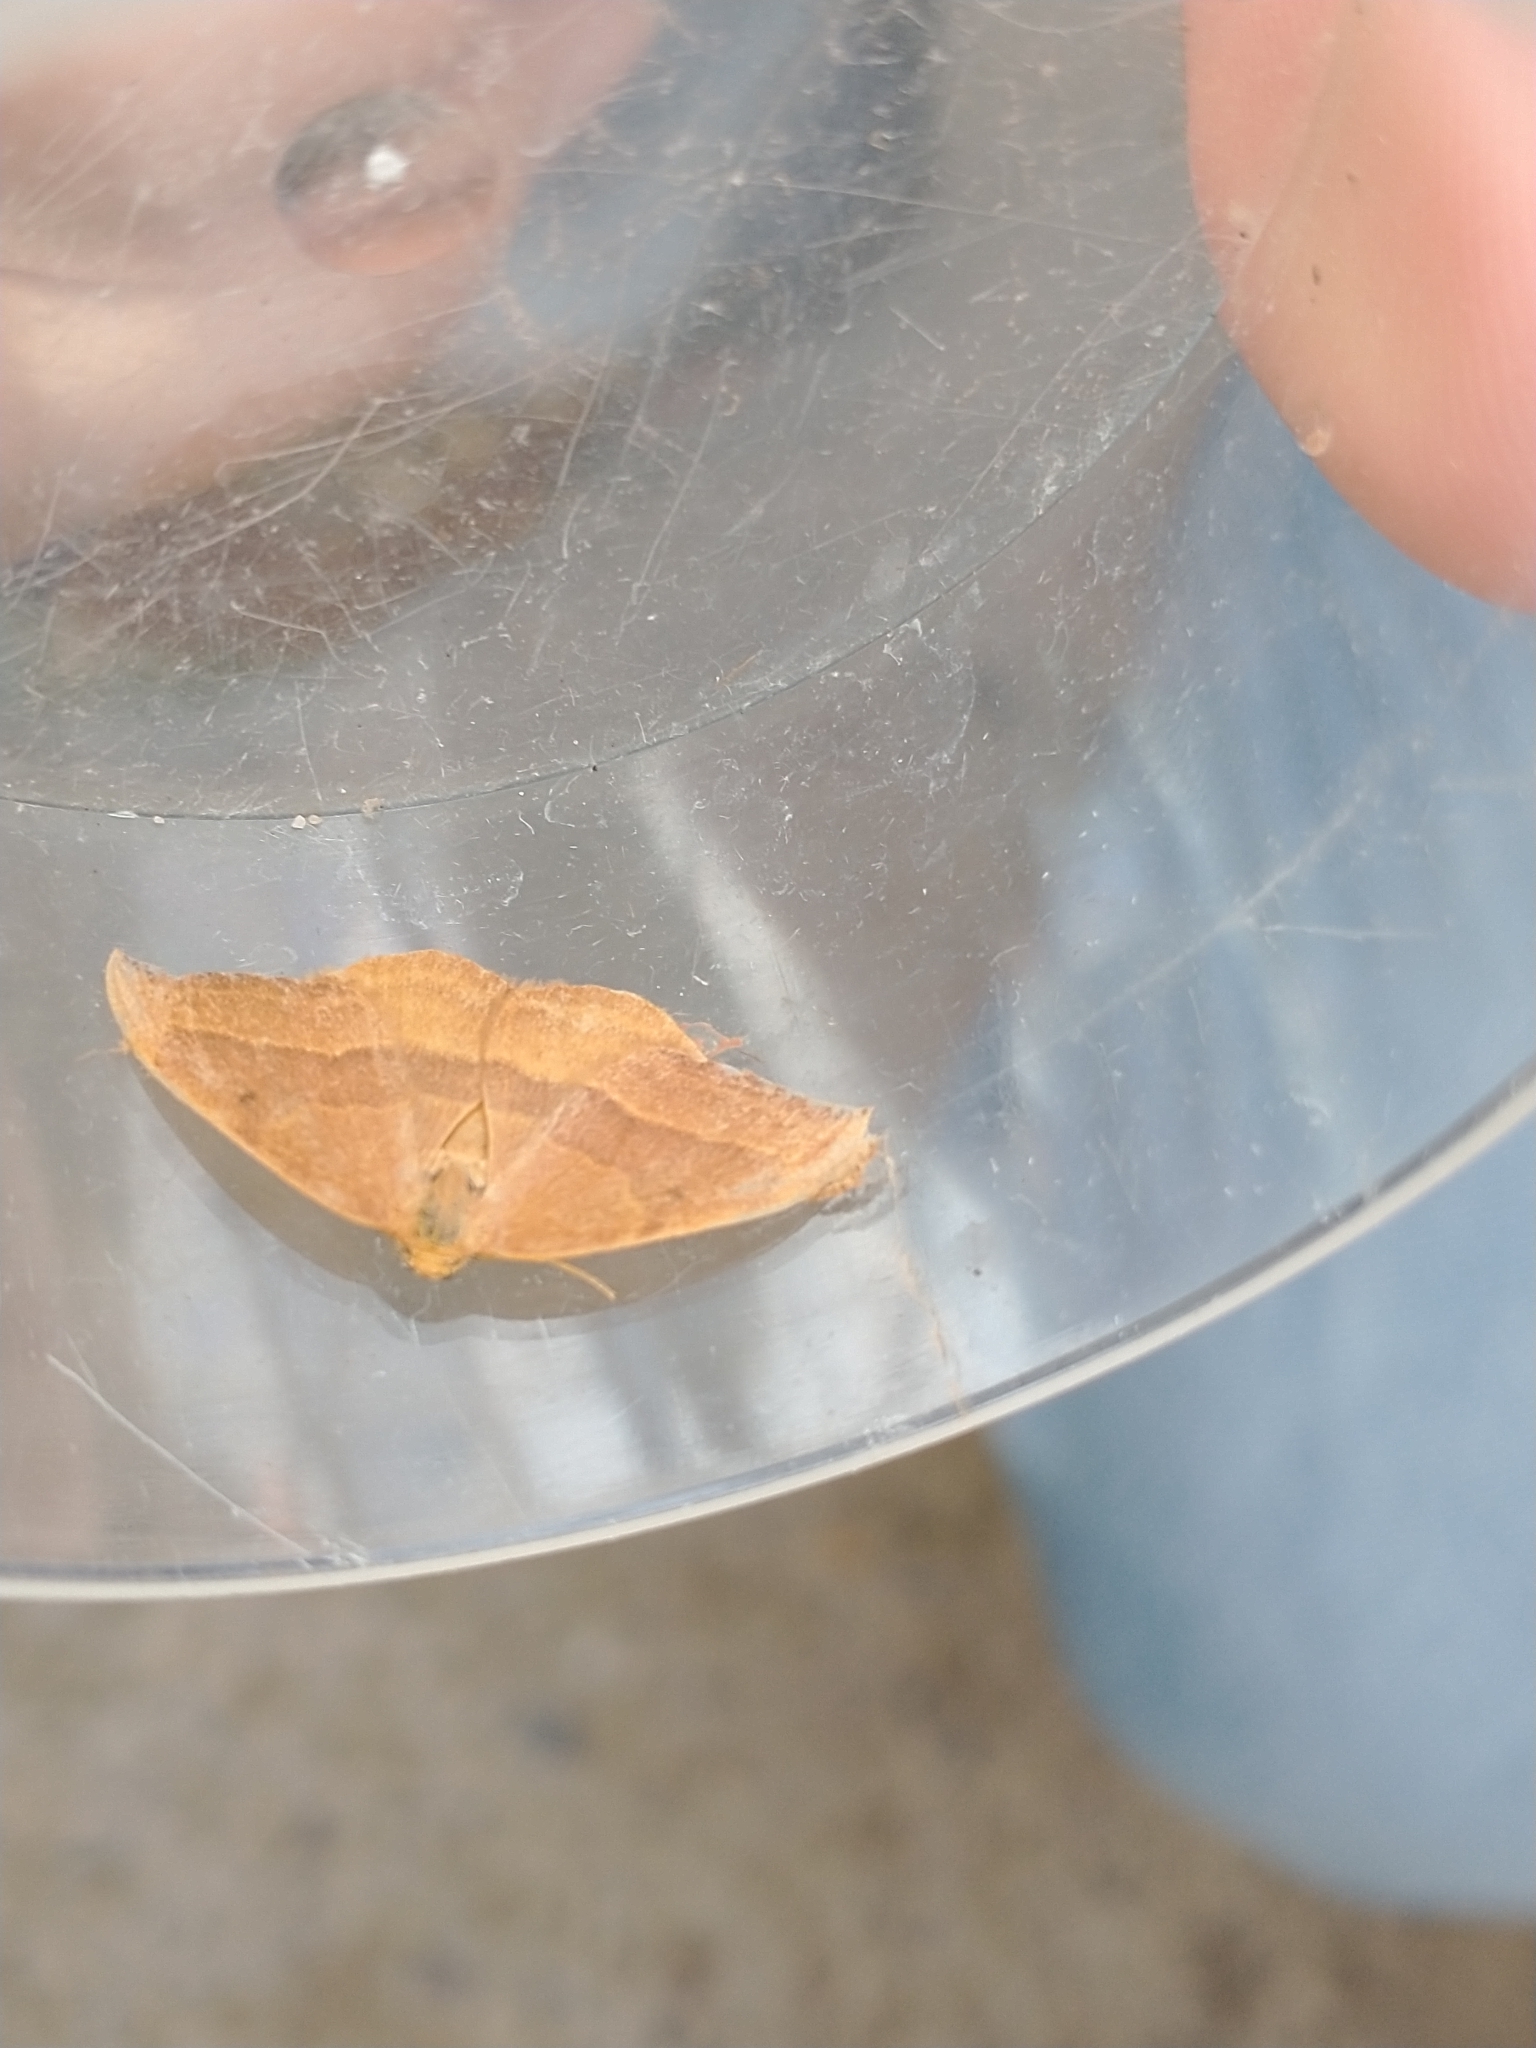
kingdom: Animalia
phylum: Arthropoda
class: Insecta
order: Lepidoptera
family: Drepanidae
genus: Watsonalla
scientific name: Watsonalla cultraria
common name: Barred hook-tip
